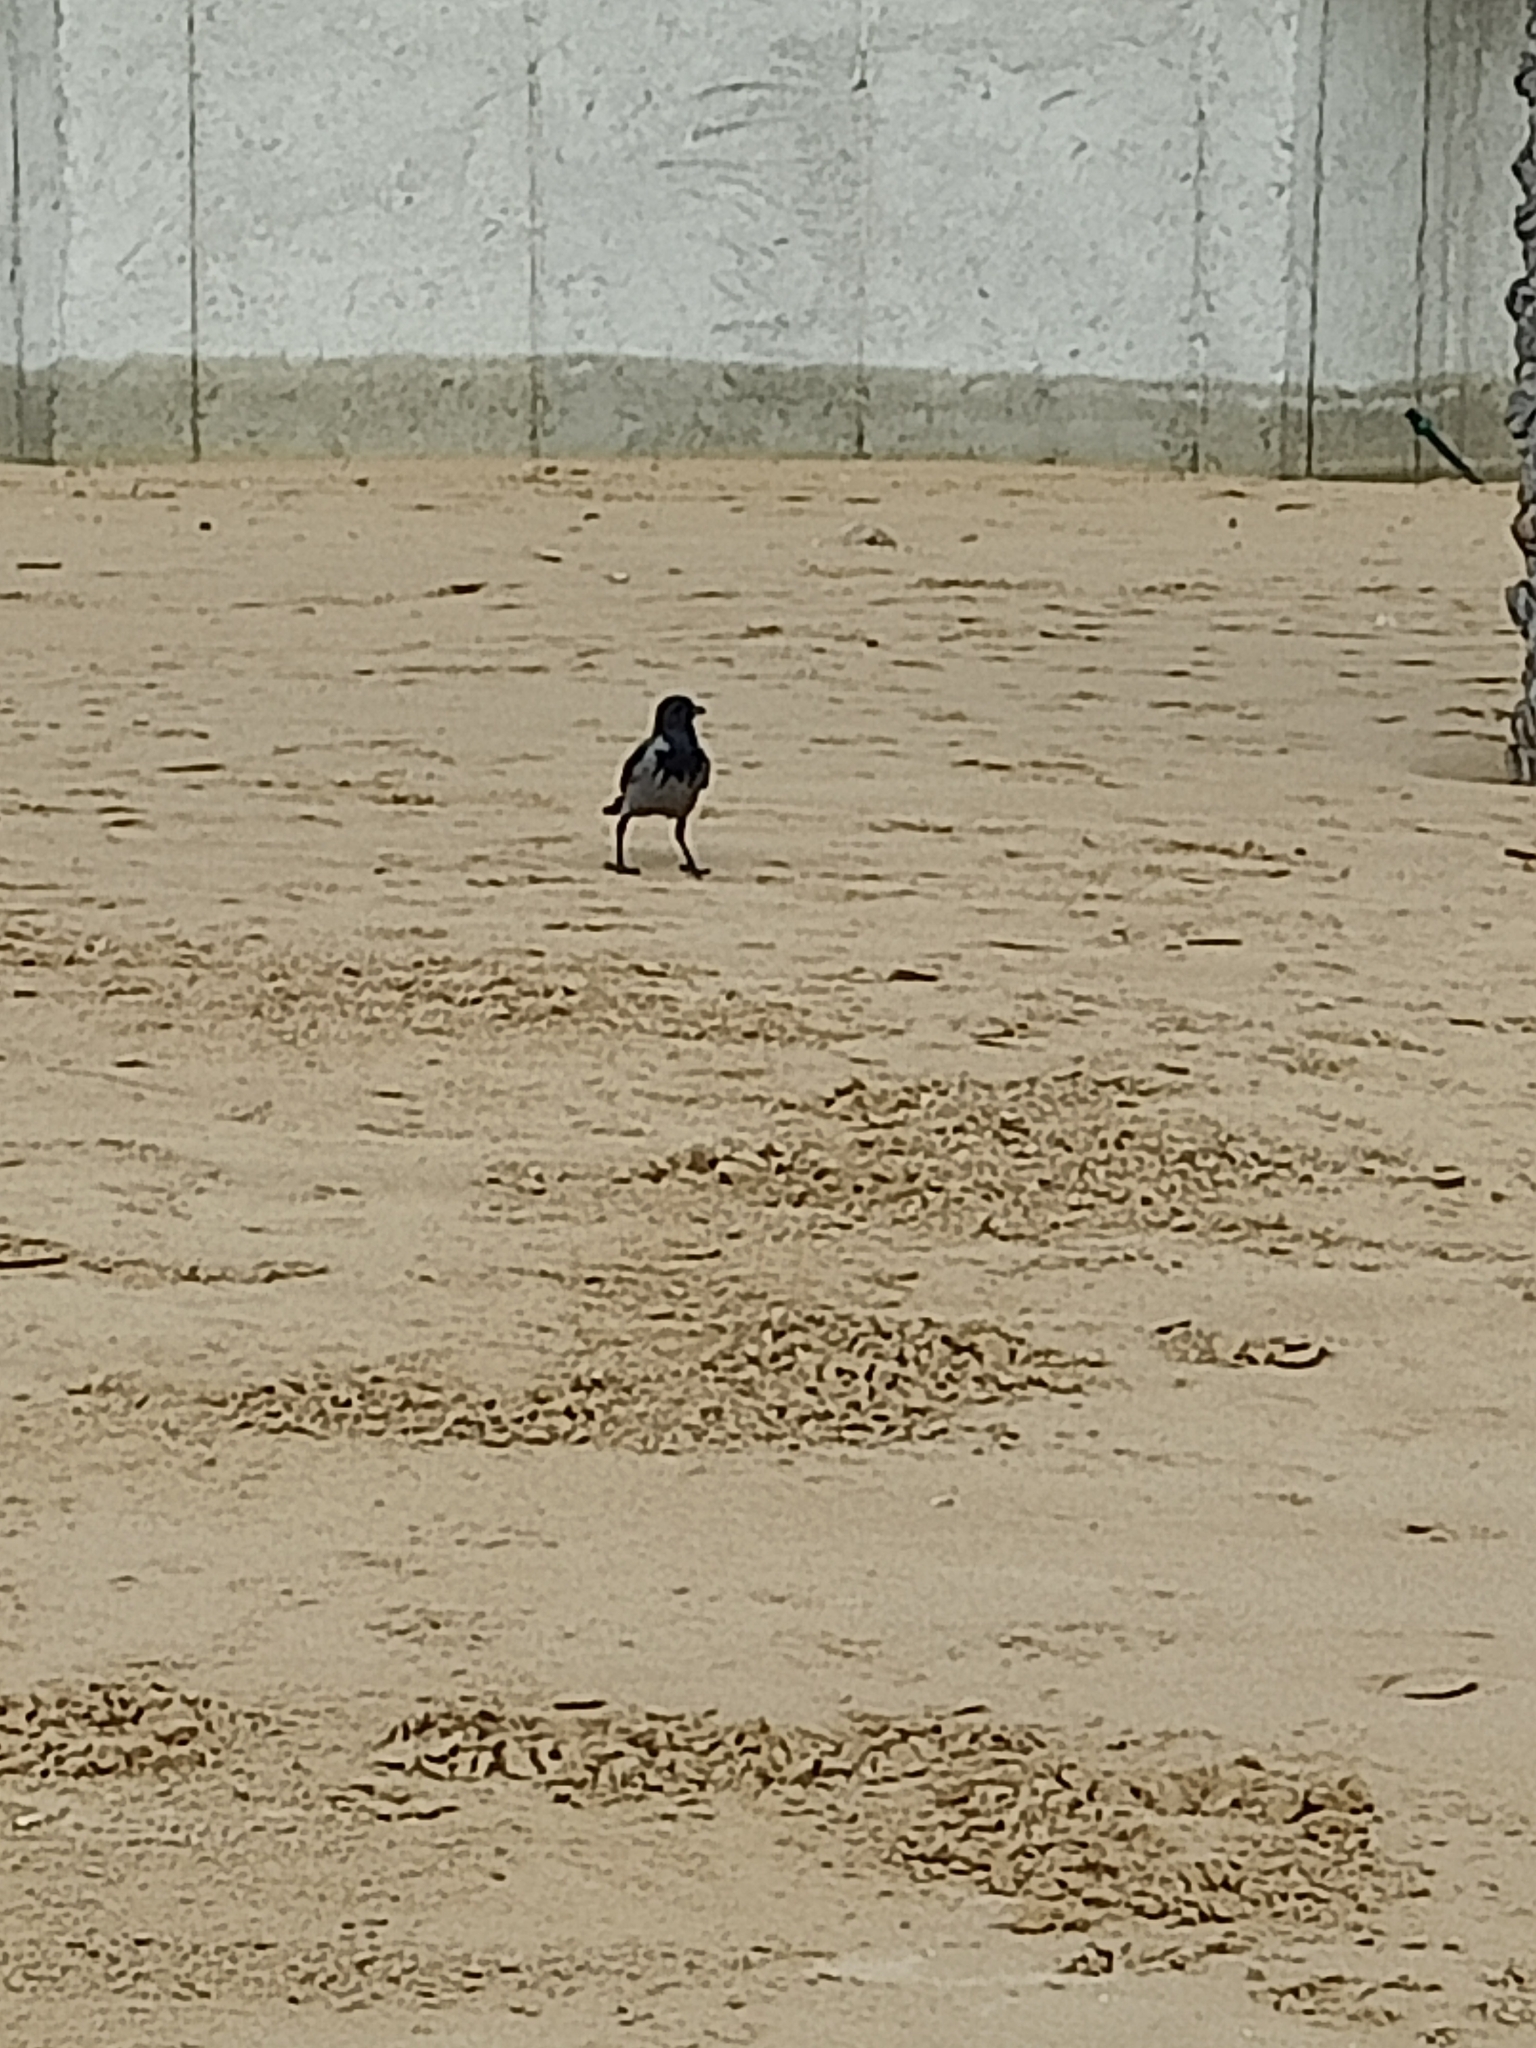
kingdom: Animalia
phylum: Chordata
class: Aves
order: Passeriformes
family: Corvidae
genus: Corvus
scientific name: Corvus cornix
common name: Hooded crow
